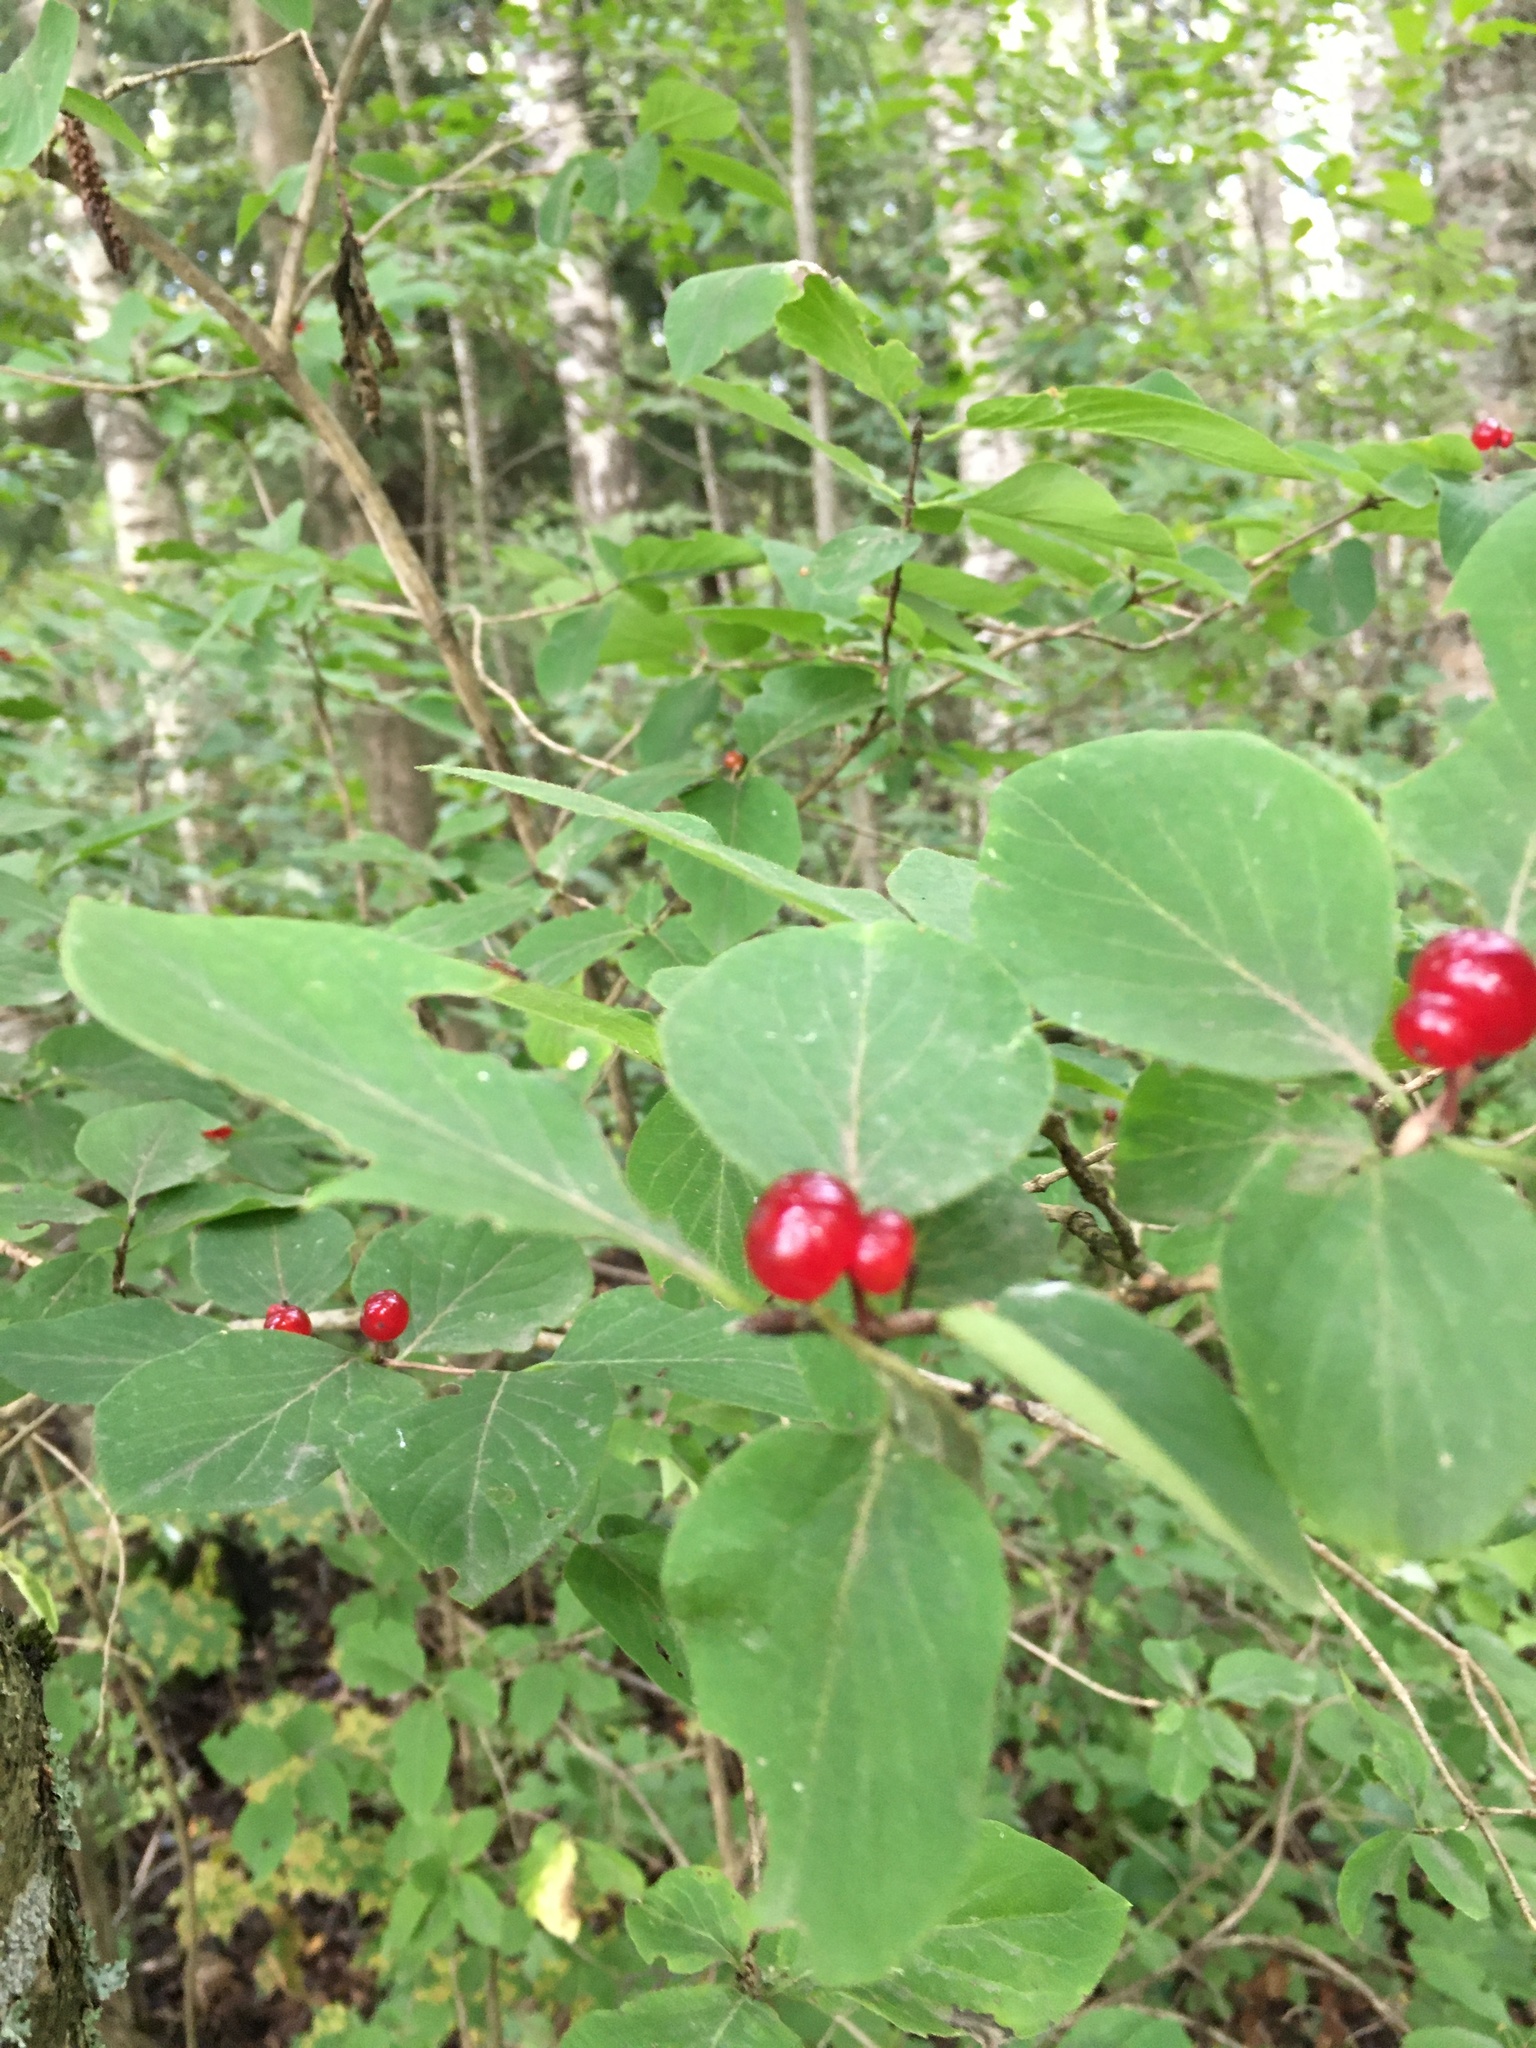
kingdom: Plantae
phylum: Tracheophyta
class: Magnoliopsida
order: Dipsacales
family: Caprifoliaceae
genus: Lonicera
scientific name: Lonicera xylosteum
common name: Fly honeysuckle
